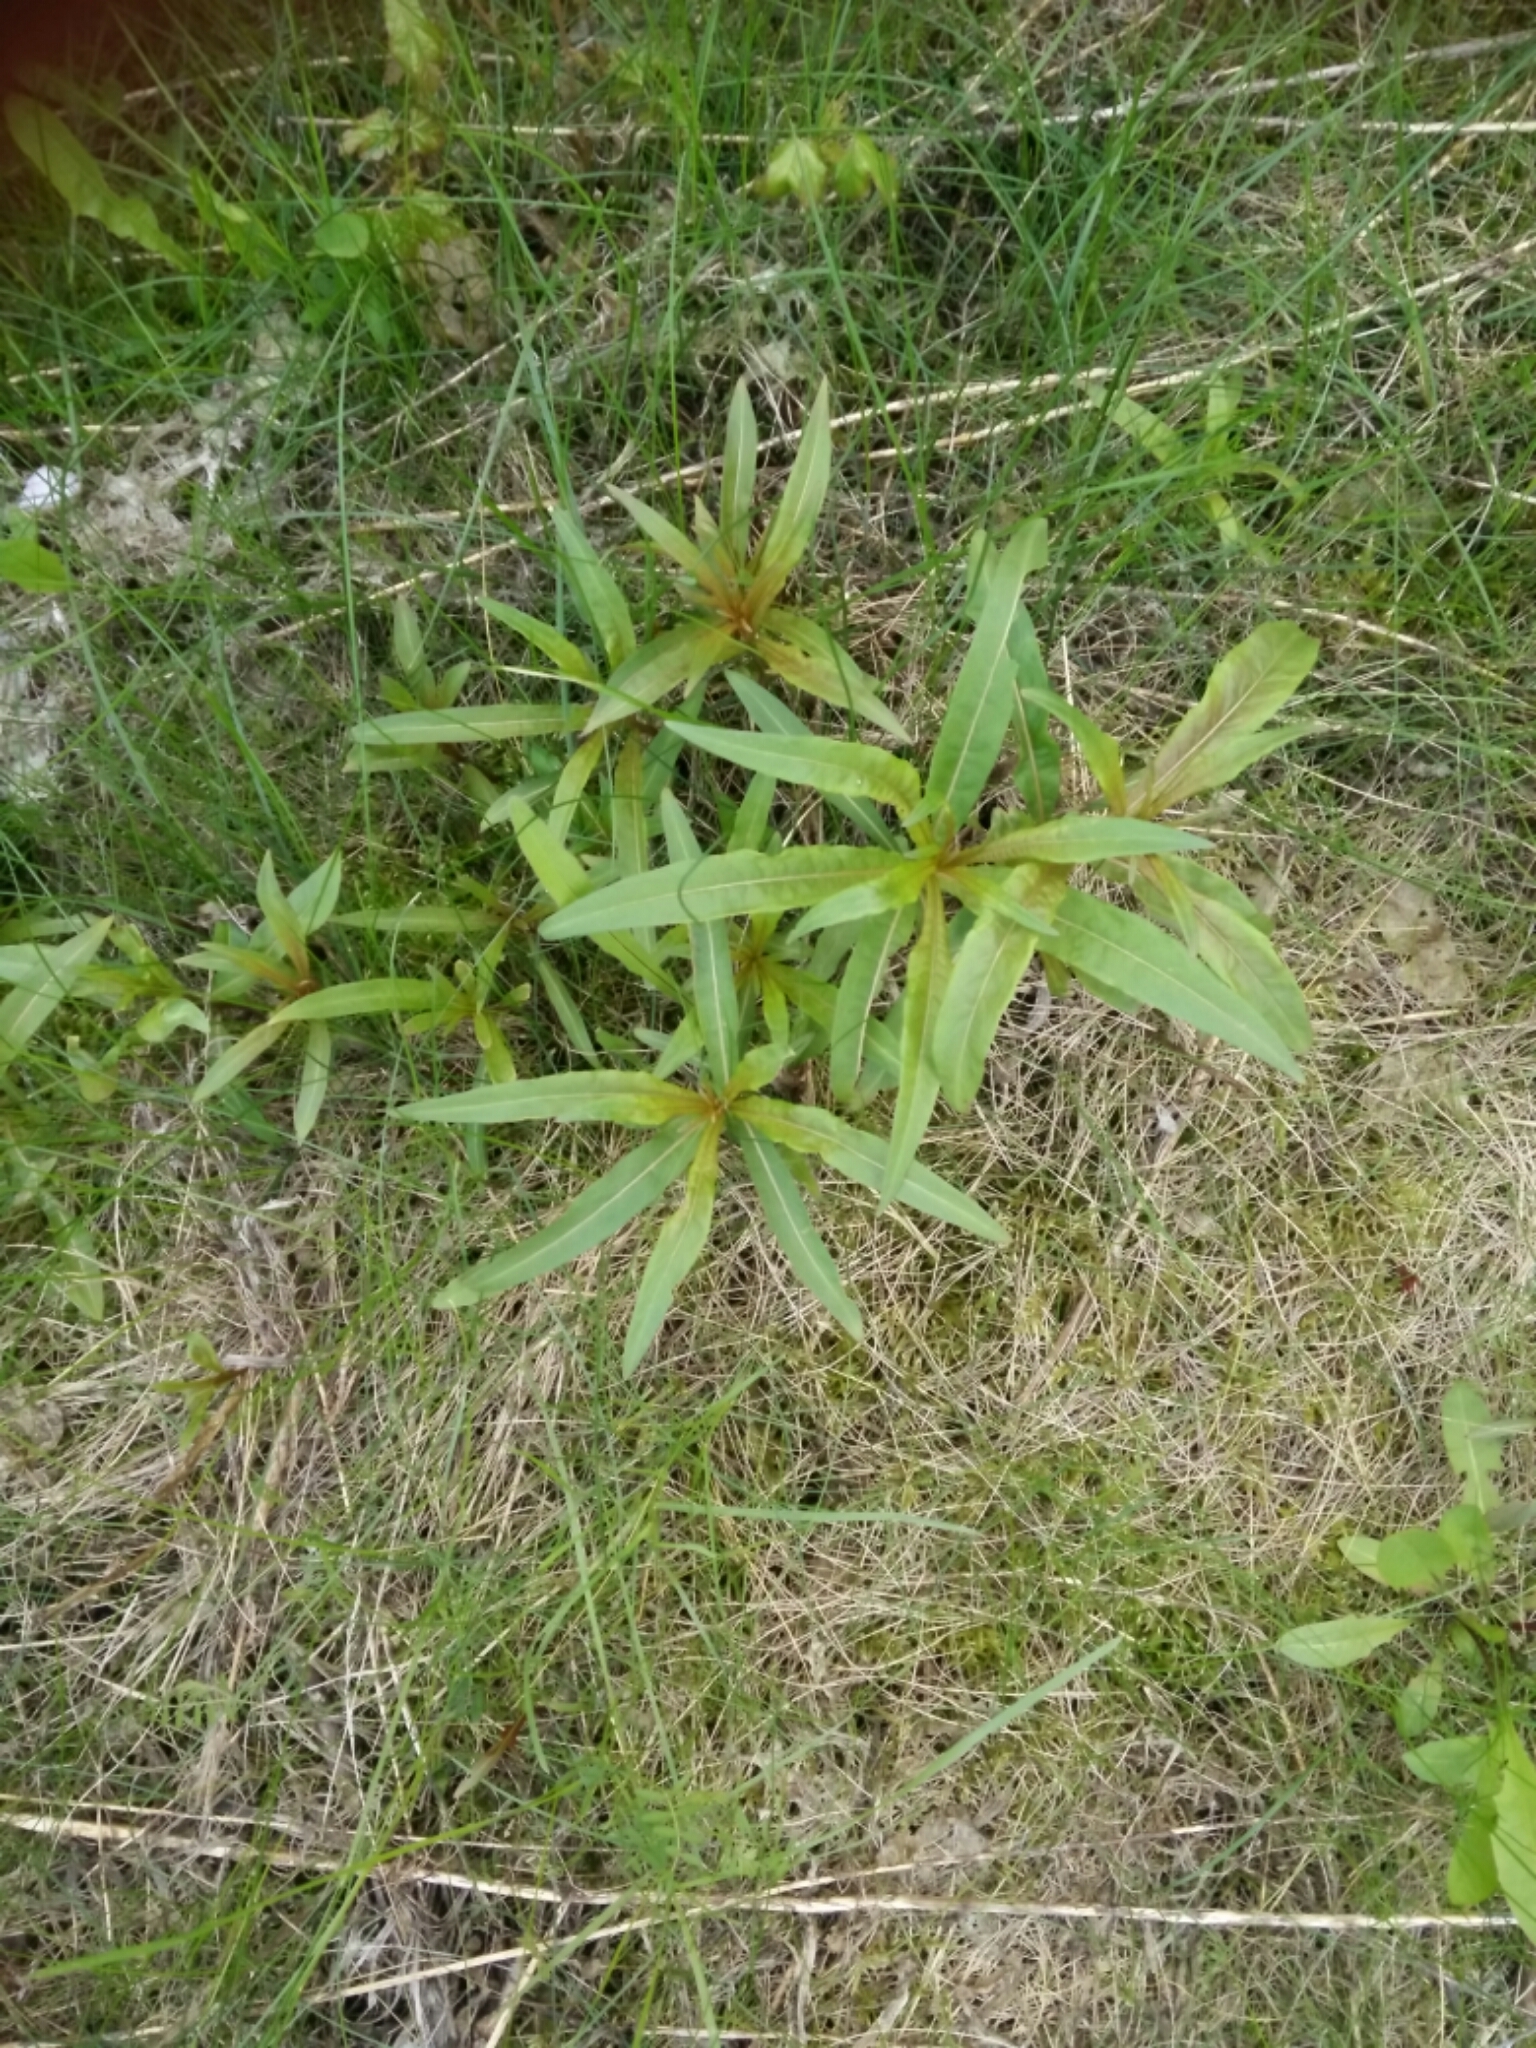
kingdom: Plantae
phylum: Tracheophyta
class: Magnoliopsida
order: Myrtales
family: Onagraceae
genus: Chamaenerion
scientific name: Chamaenerion angustifolium
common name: Fireweed
